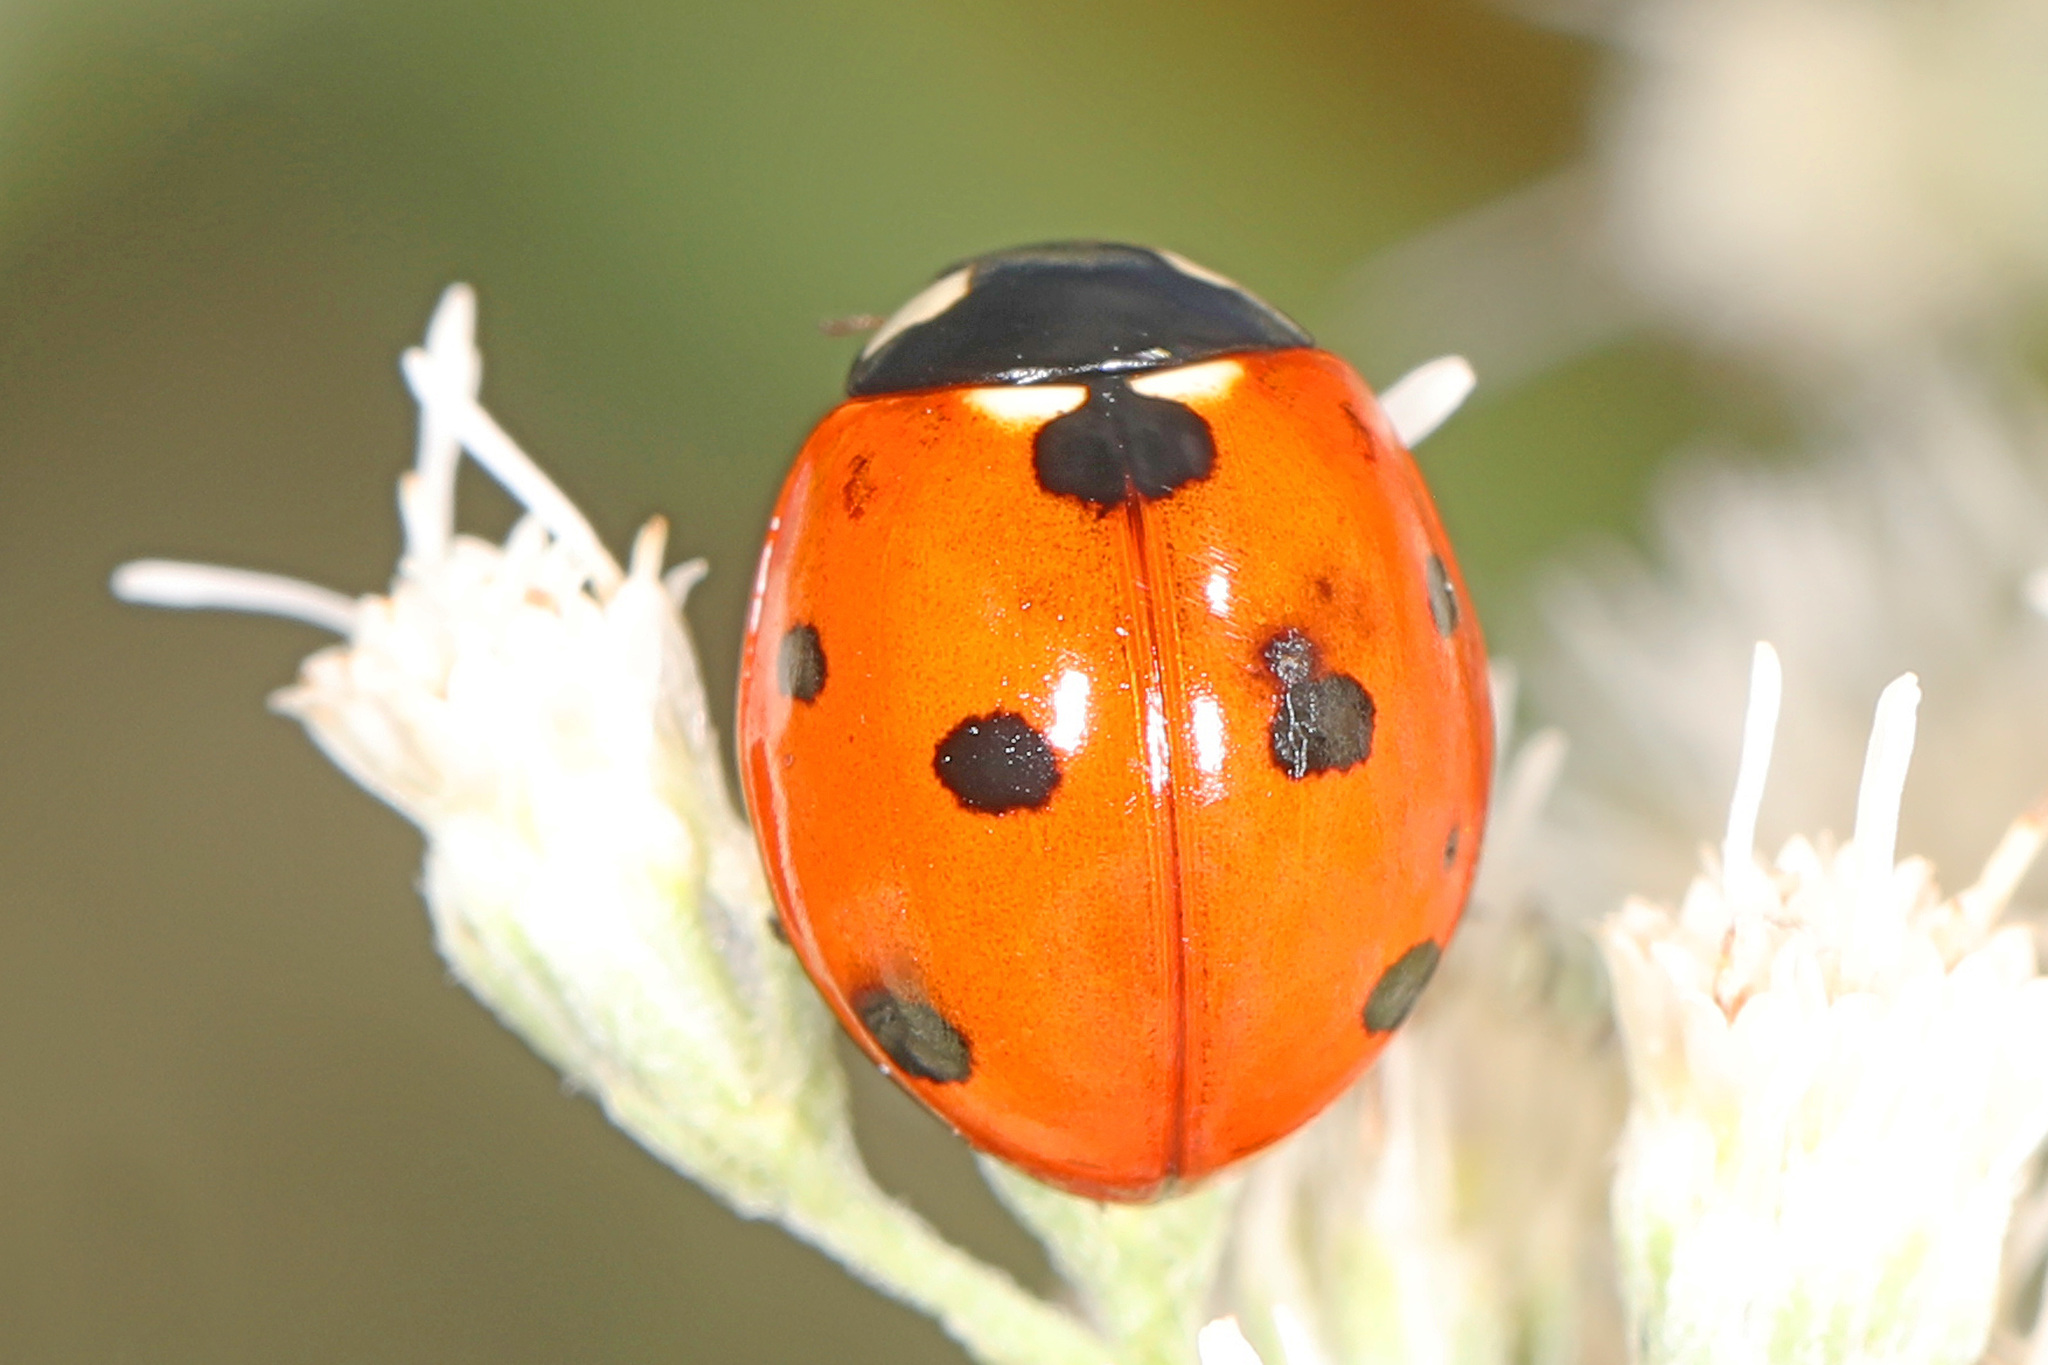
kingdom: Animalia
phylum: Arthropoda
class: Insecta
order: Coleoptera
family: Coccinellidae
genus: Coccinella
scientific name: Coccinella septempunctata
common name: Sevenspotted lady beetle
